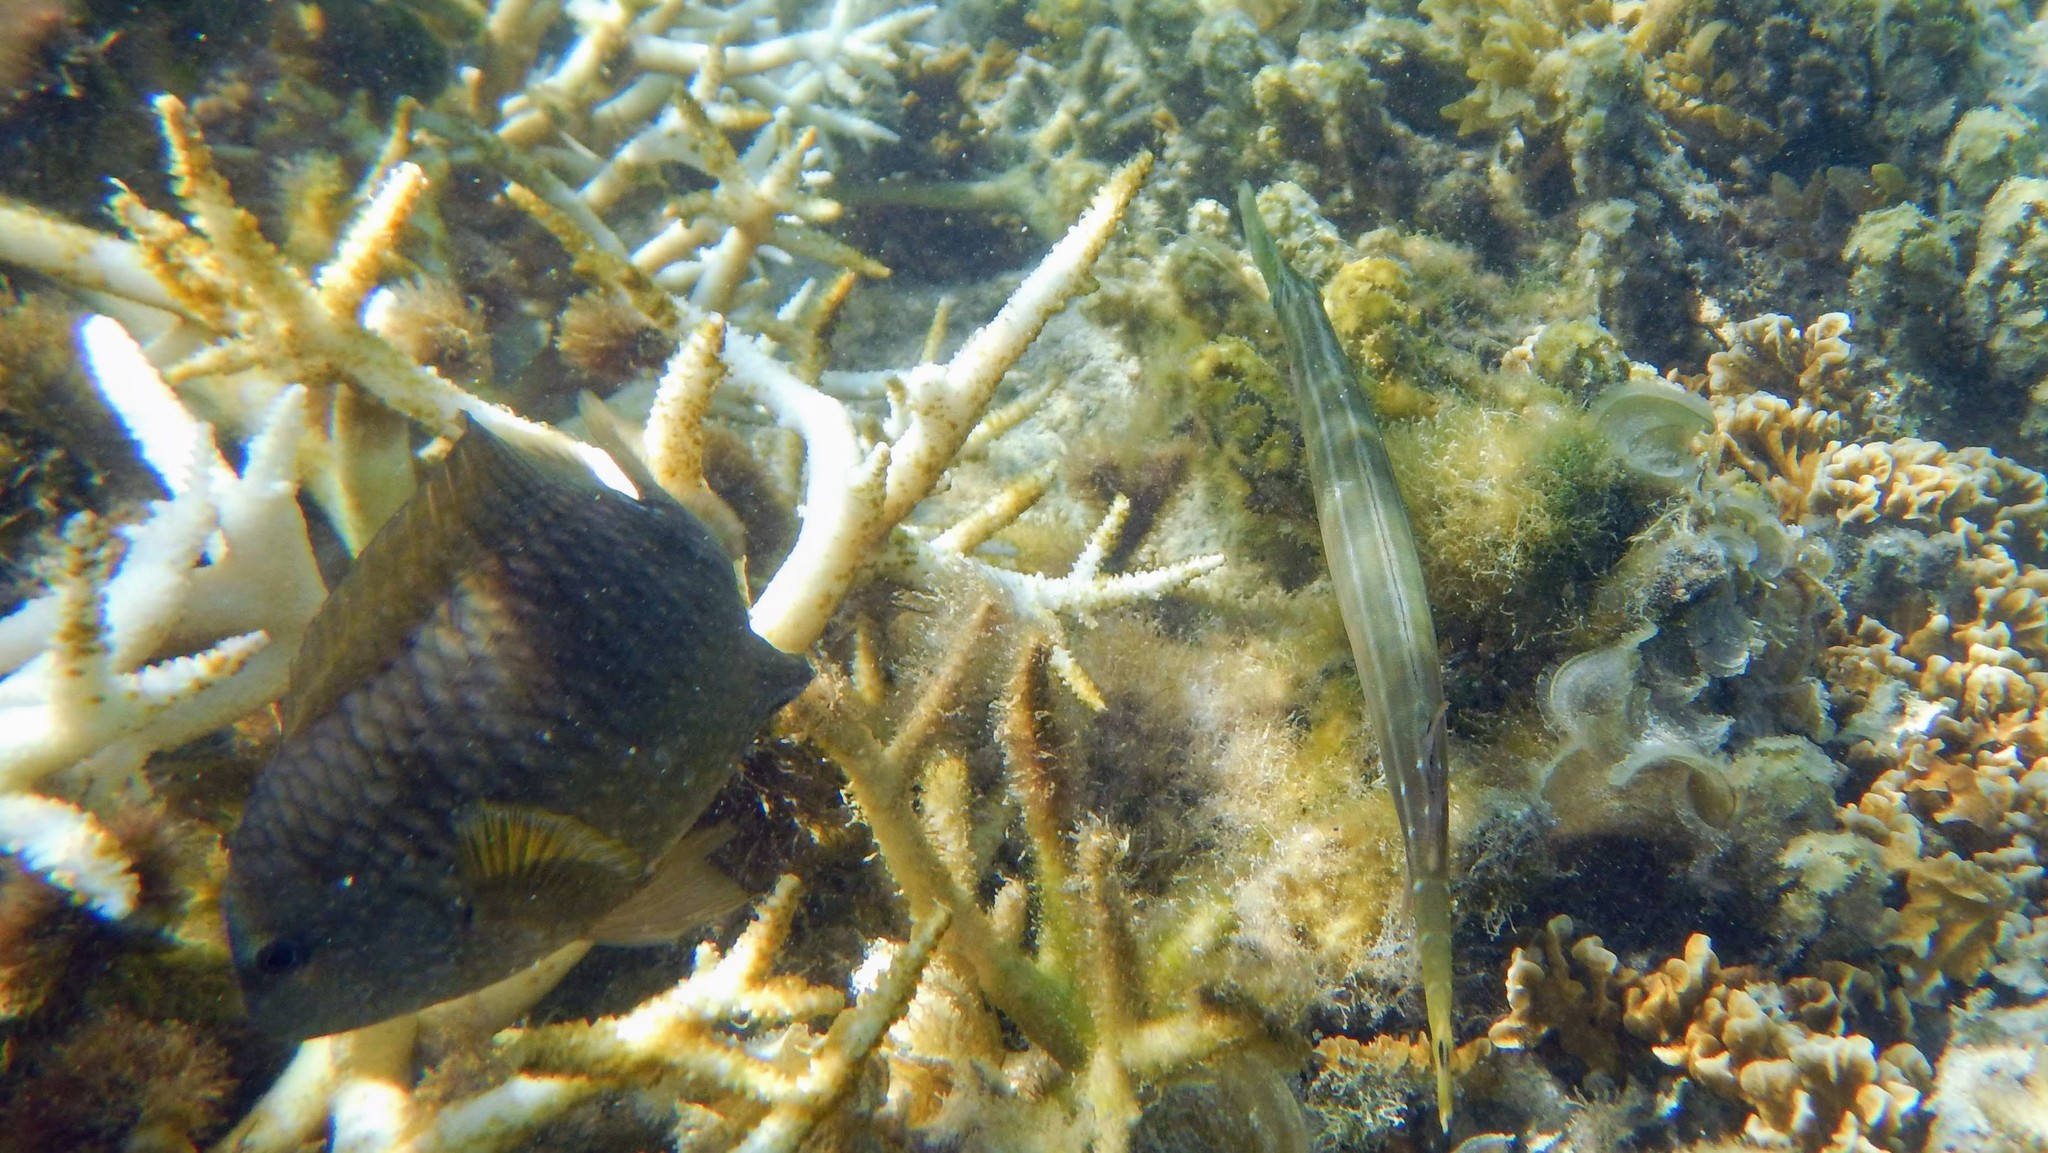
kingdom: Animalia
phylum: Chordata
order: Syngnathiformes
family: Aulostomidae
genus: Aulostomus
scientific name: Aulostomus chinensis
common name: Chinese trumpetfish
